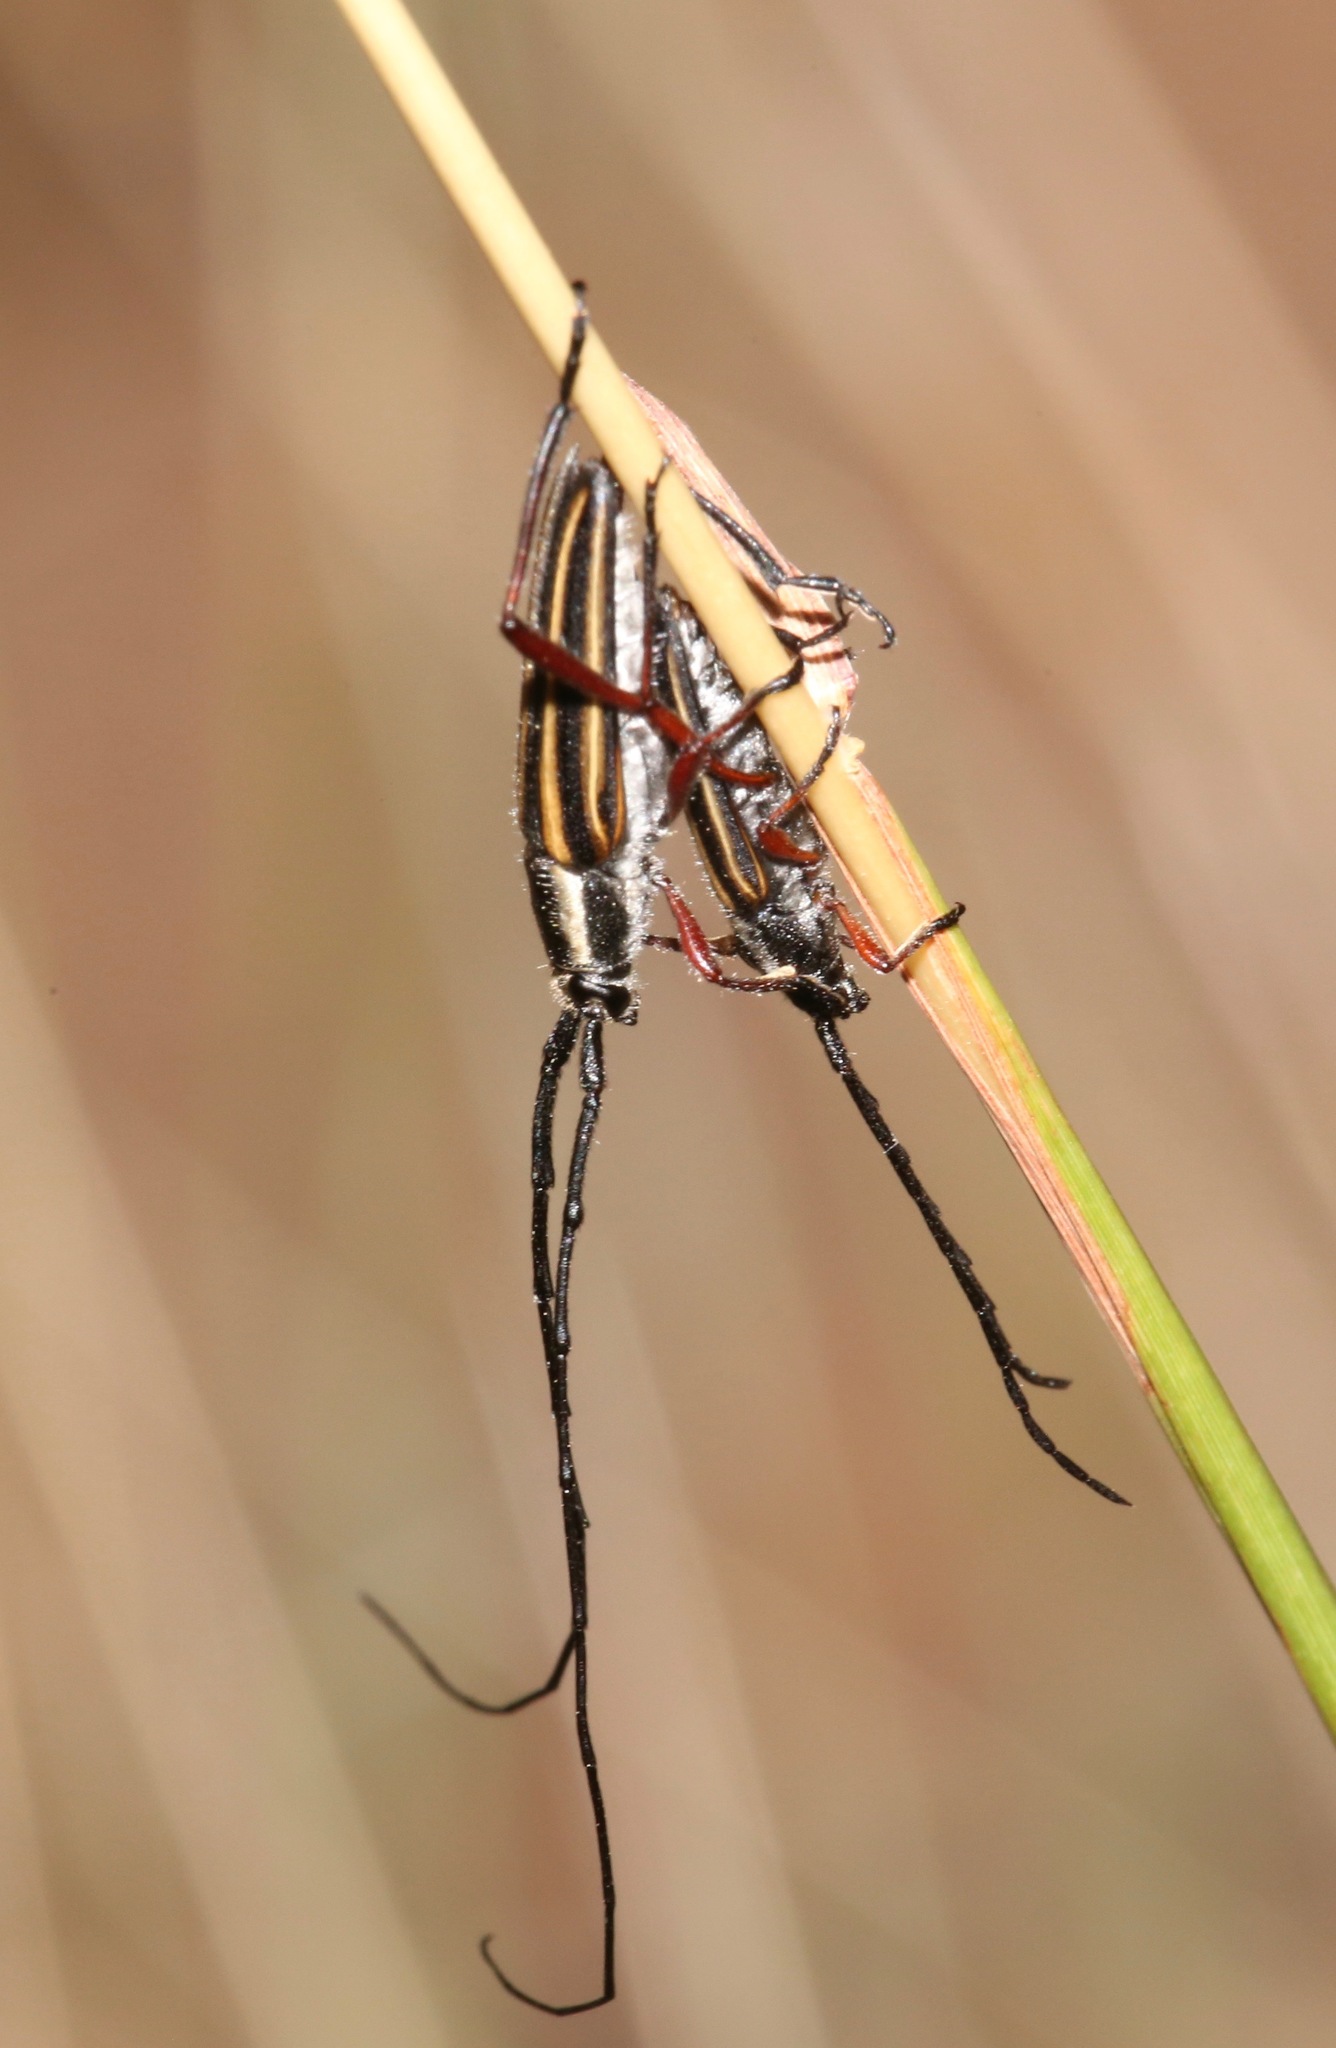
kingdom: Animalia
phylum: Arthropoda
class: Insecta
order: Coleoptera
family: Cerambycidae
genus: Sphaenothecus
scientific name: Sphaenothecus bilineatus
